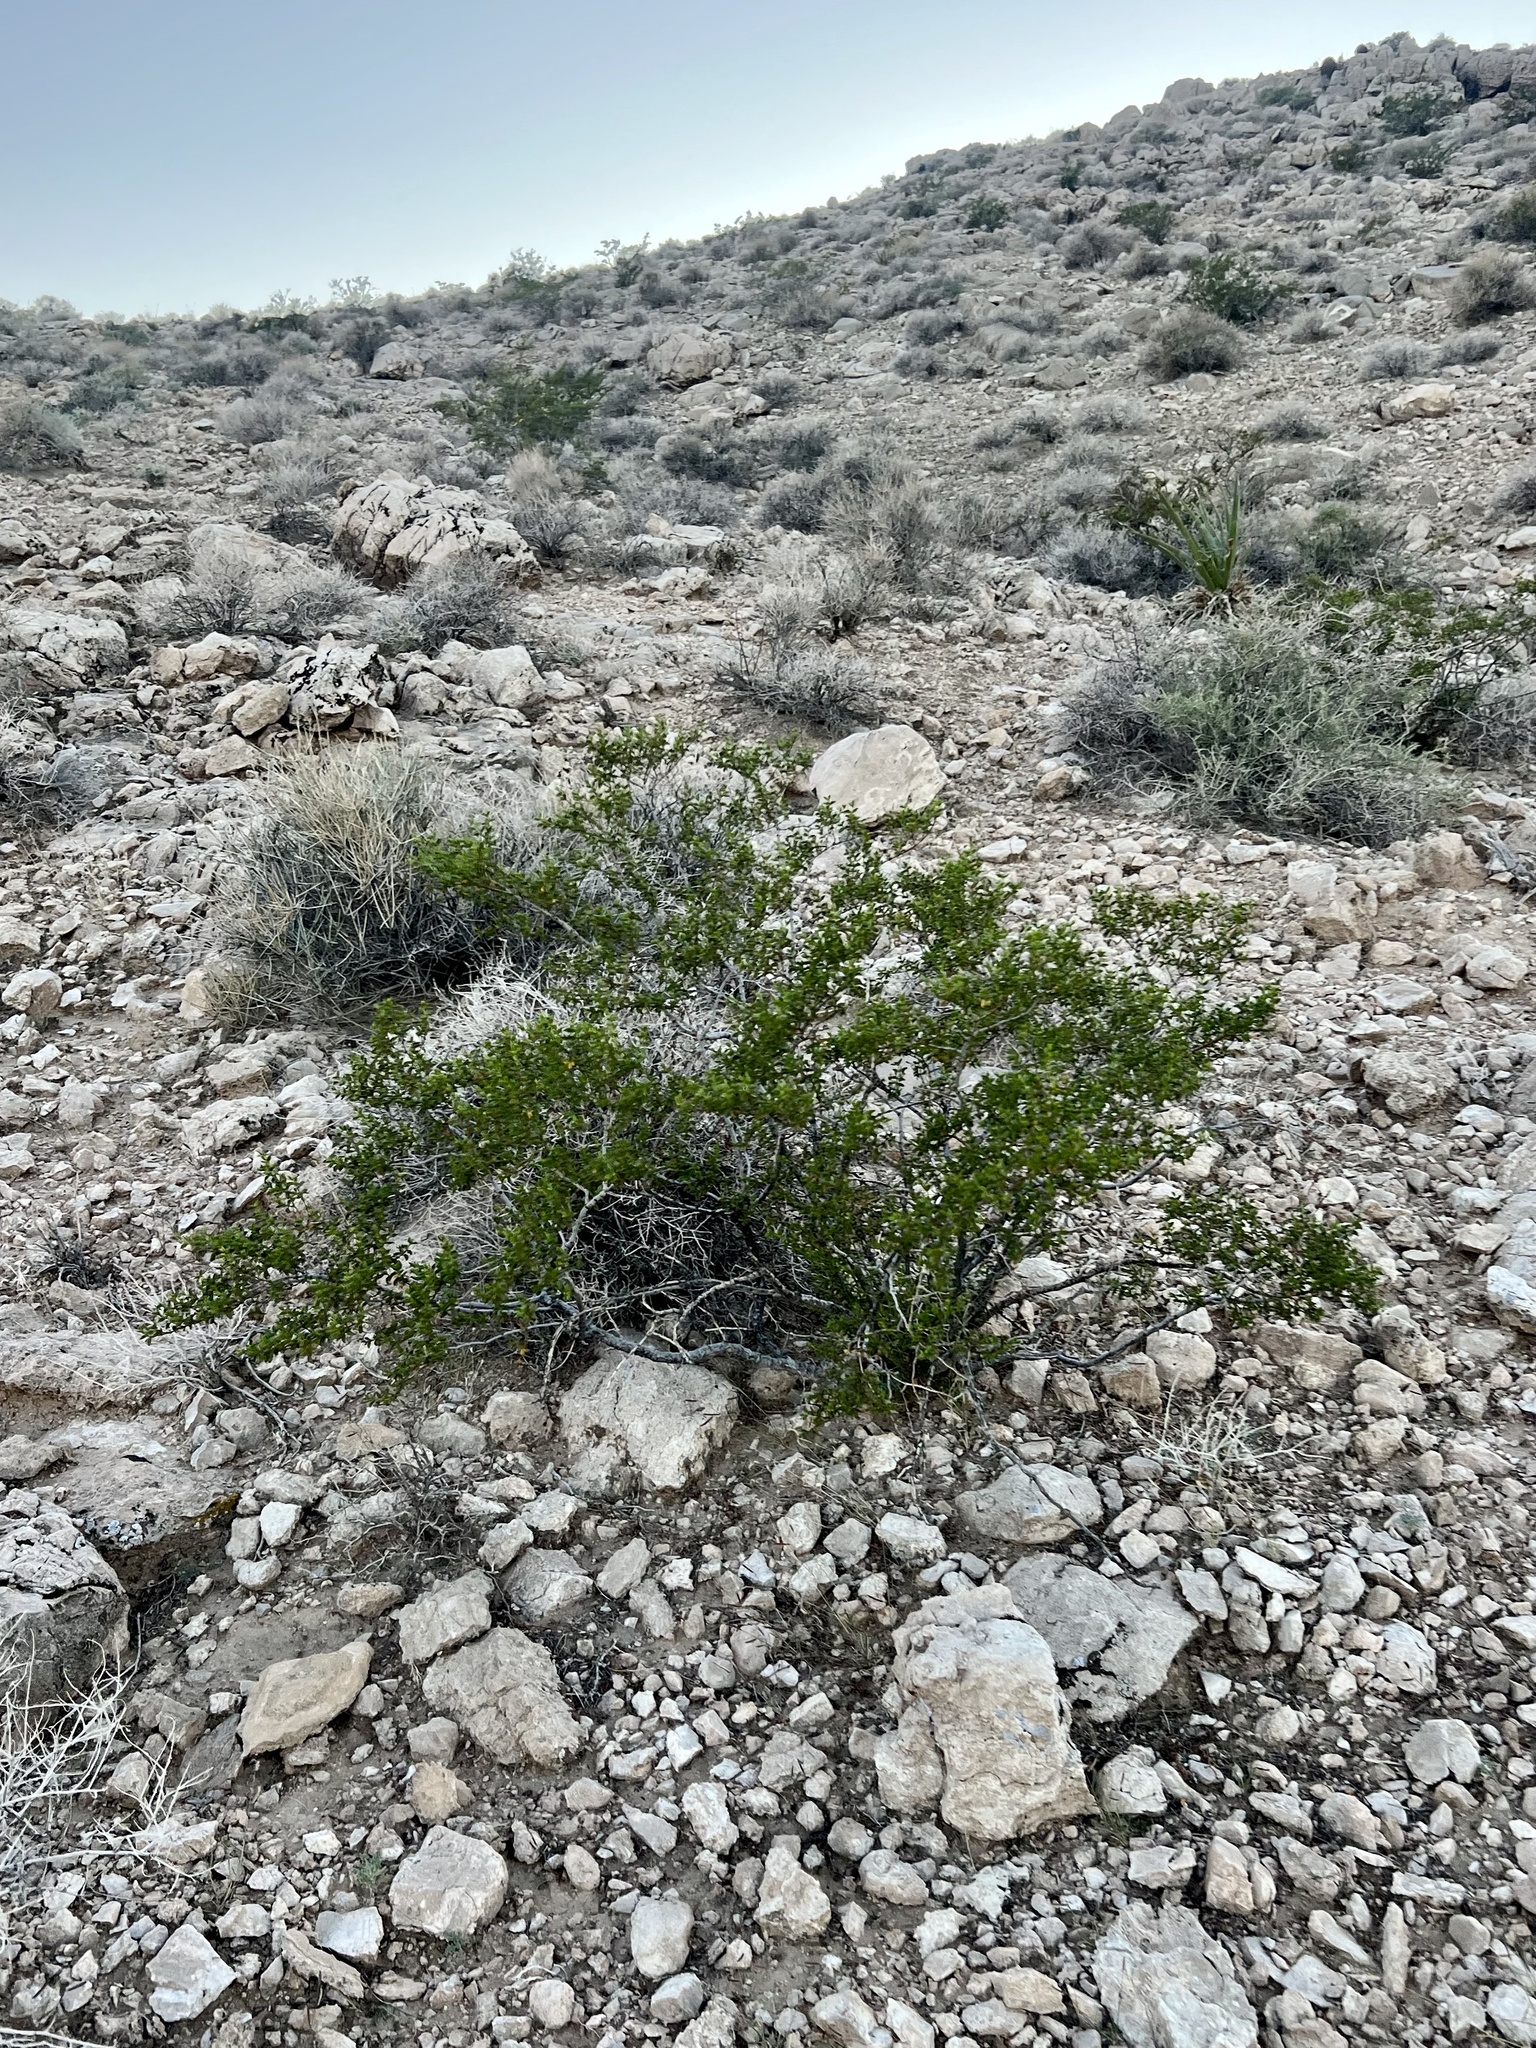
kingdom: Plantae
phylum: Tracheophyta
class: Magnoliopsida
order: Zygophyllales
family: Zygophyllaceae
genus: Larrea
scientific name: Larrea tridentata
